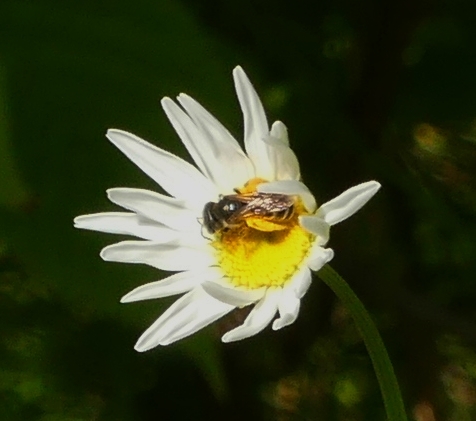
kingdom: Animalia
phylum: Arthropoda
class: Insecta
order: Hymenoptera
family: Halictidae
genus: Halictus
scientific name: Halictus ligatus
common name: Ligated furrow bee
